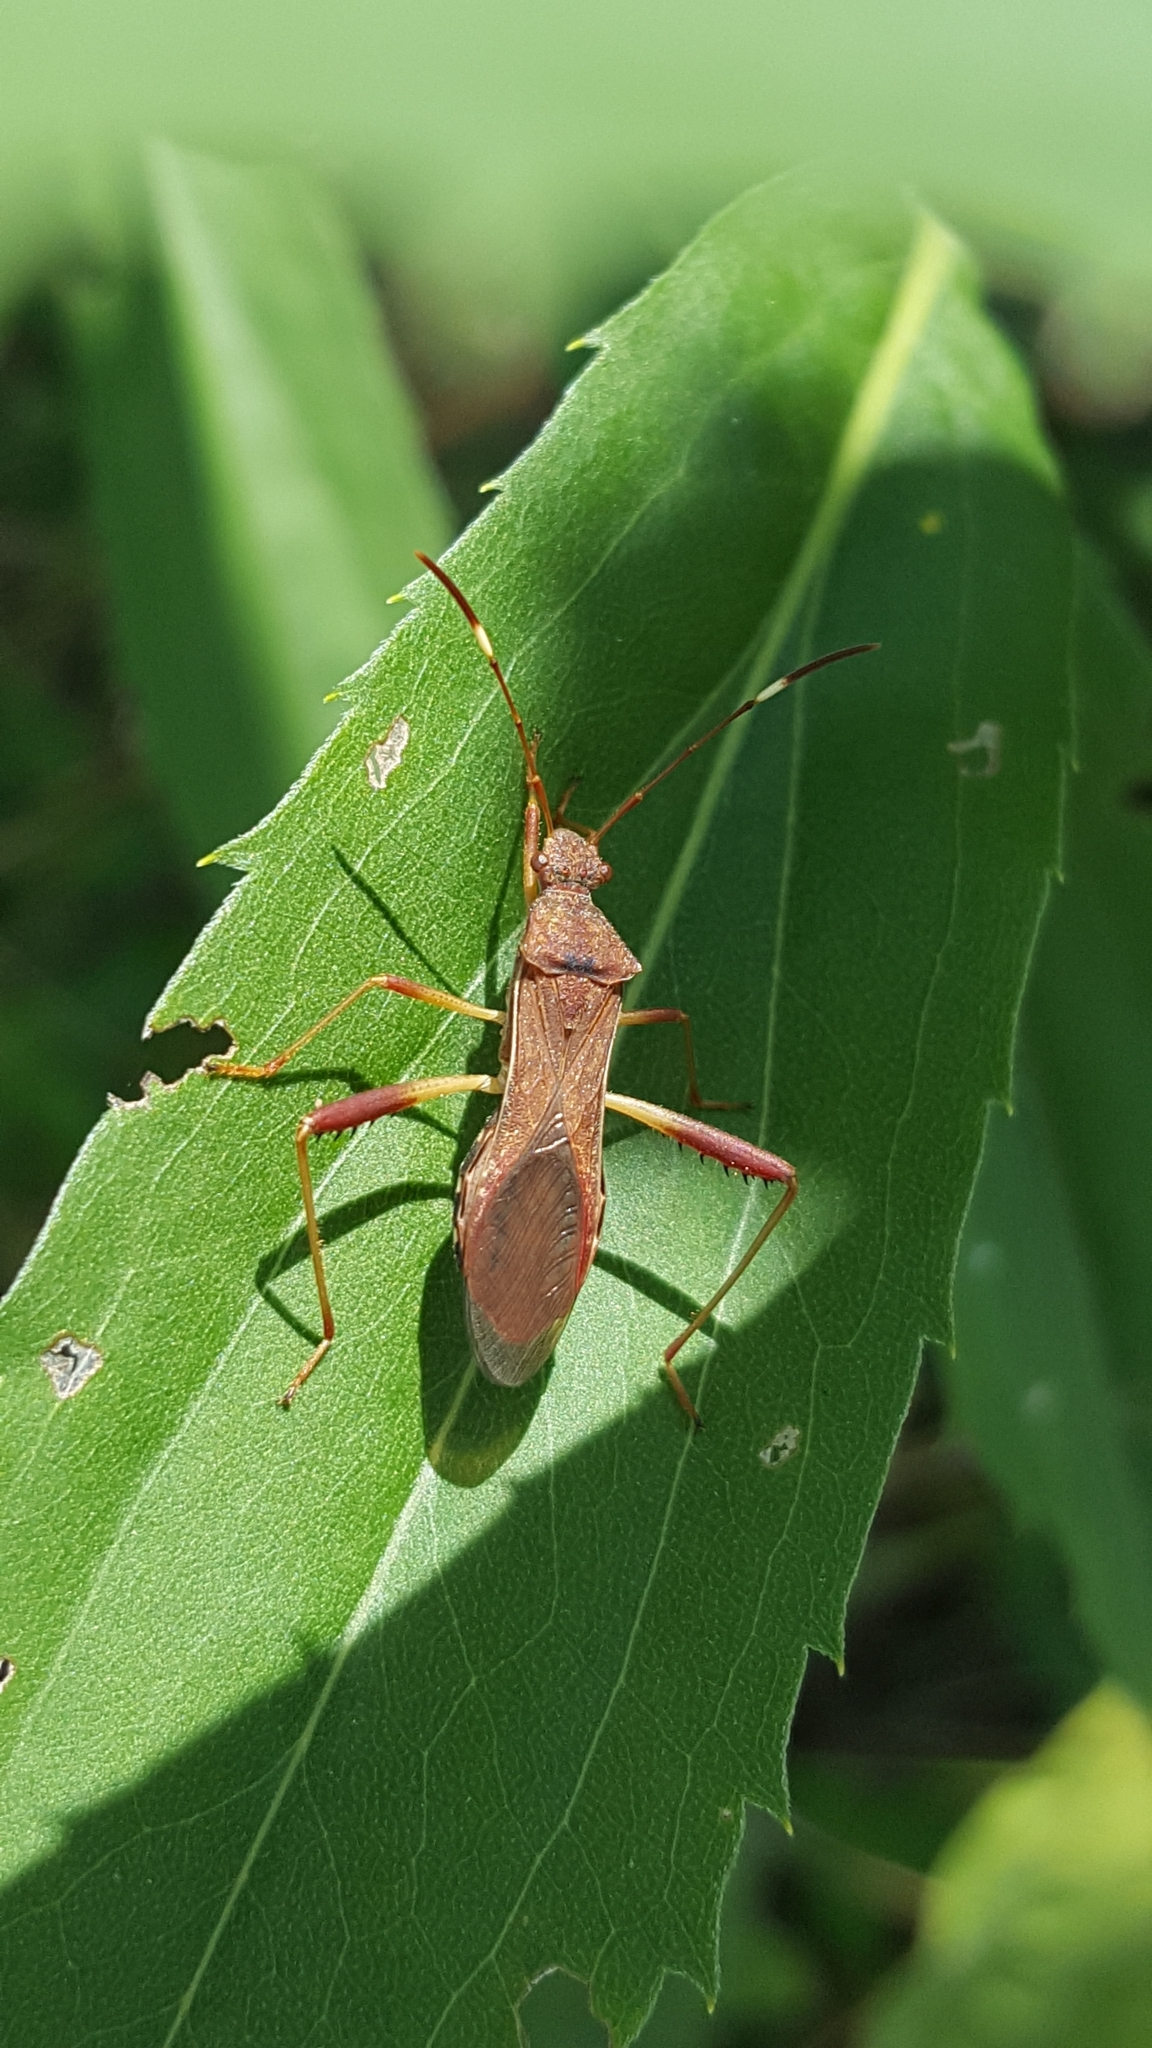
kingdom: Animalia
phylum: Arthropoda
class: Insecta
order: Hemiptera
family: Alydidae
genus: Megalotomus
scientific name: Megalotomus quinquespinosus
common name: Lupine bug
